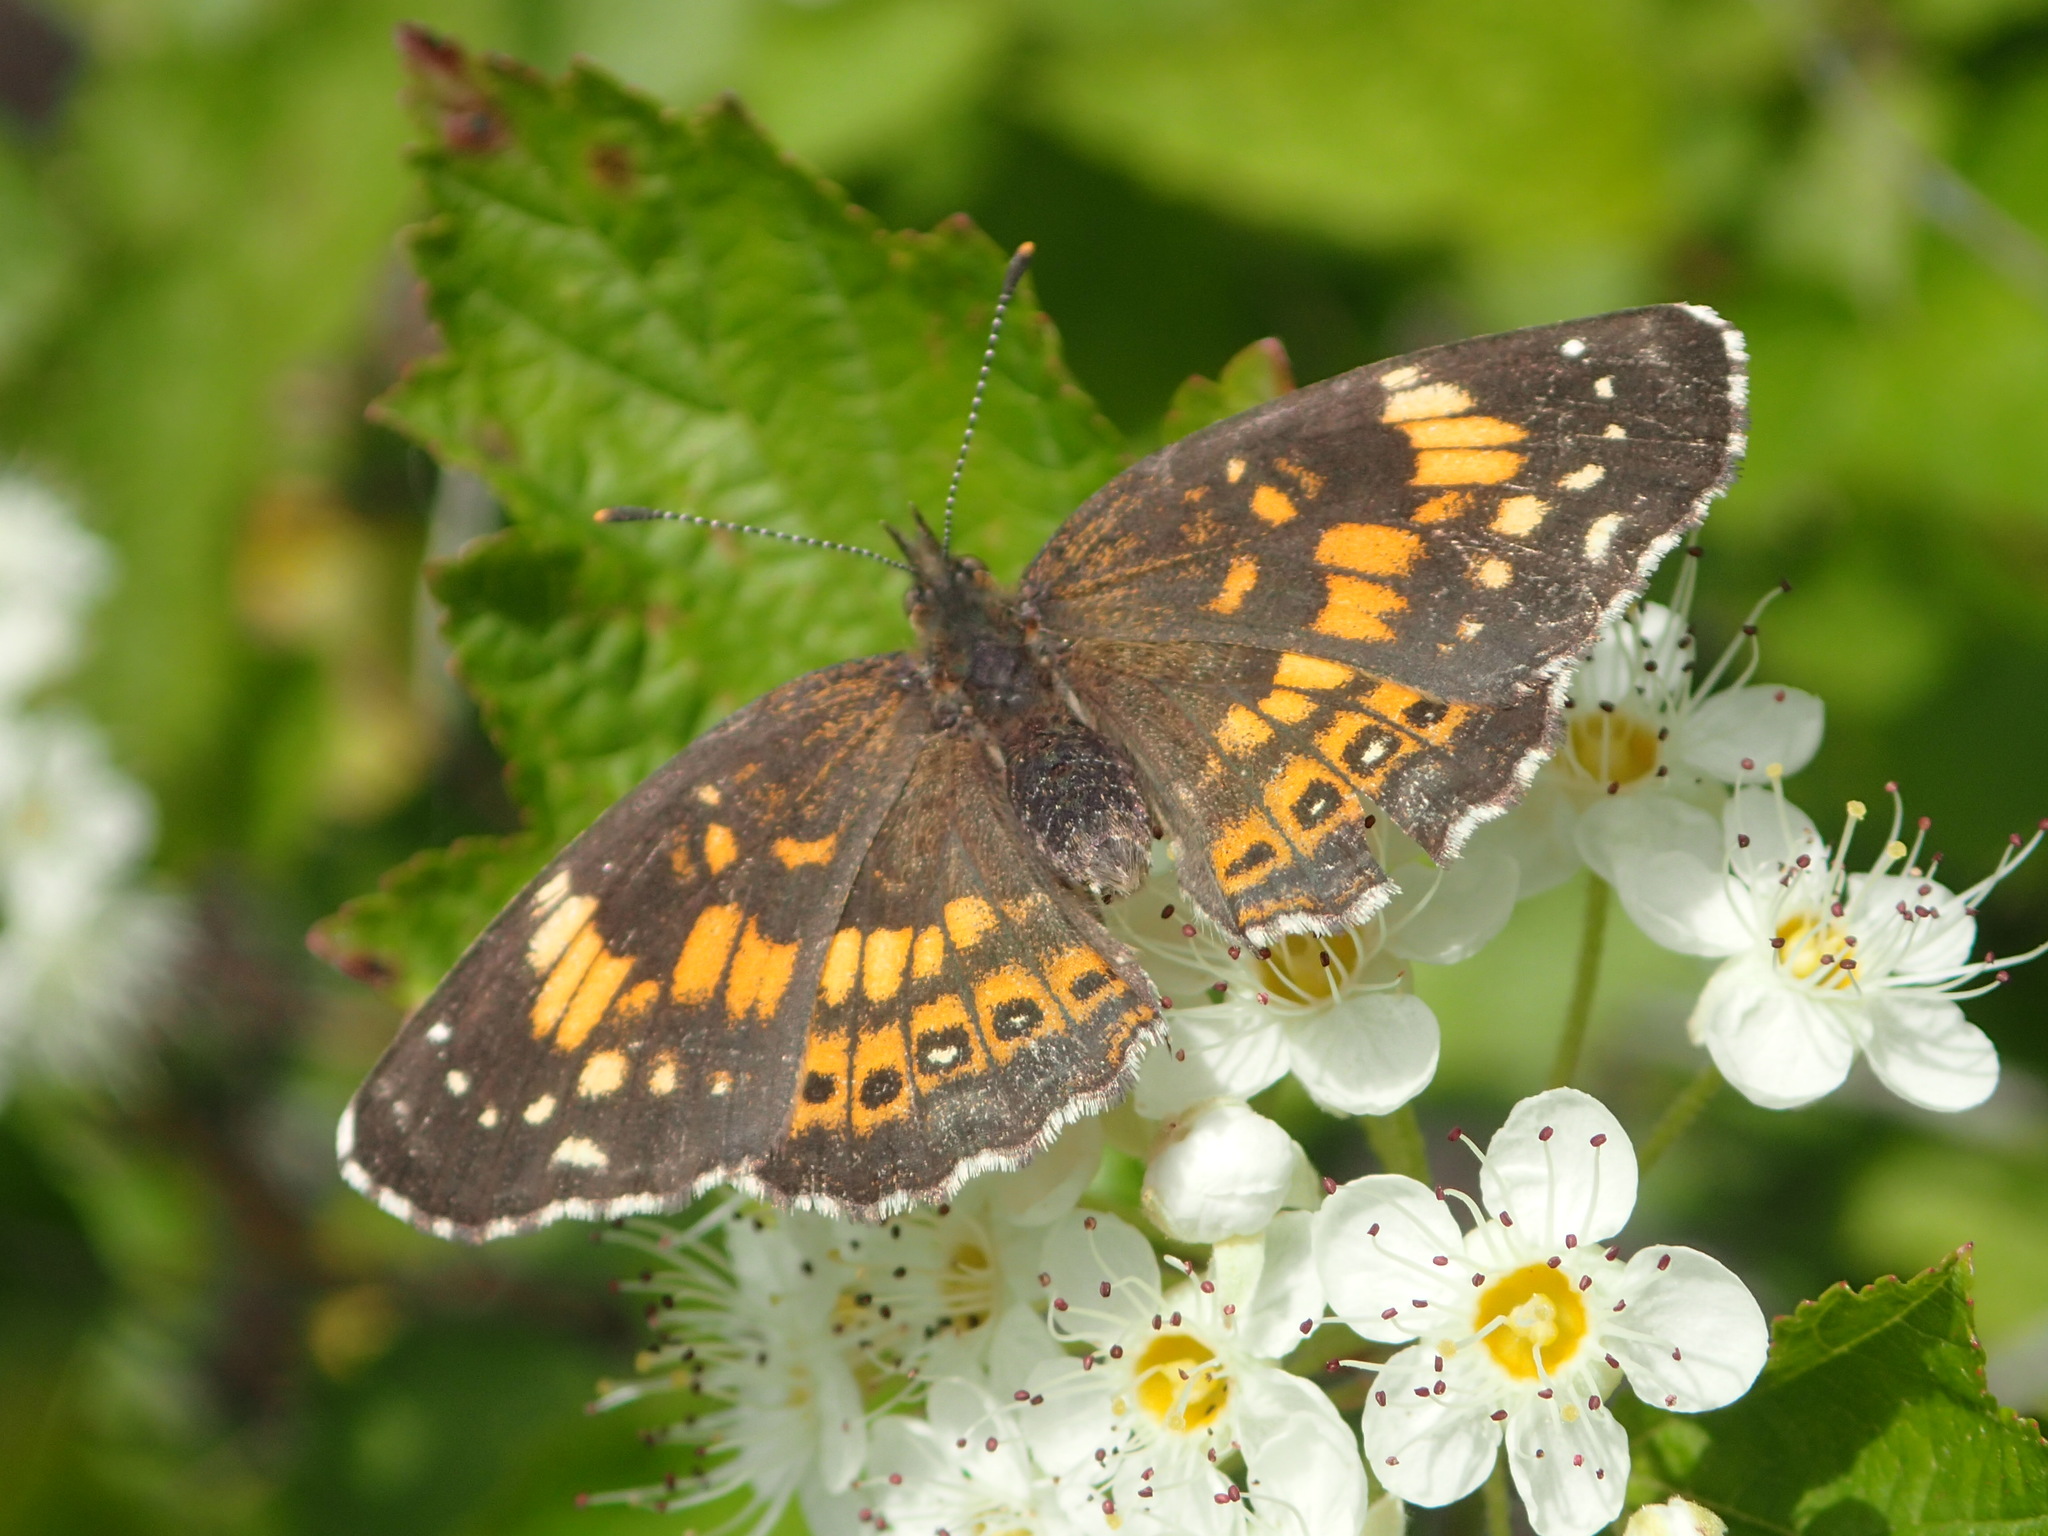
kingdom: Animalia
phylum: Arthropoda
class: Insecta
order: Lepidoptera
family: Nymphalidae
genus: Chlosyne
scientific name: Chlosyne nycteis
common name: Silvery checkerspot
